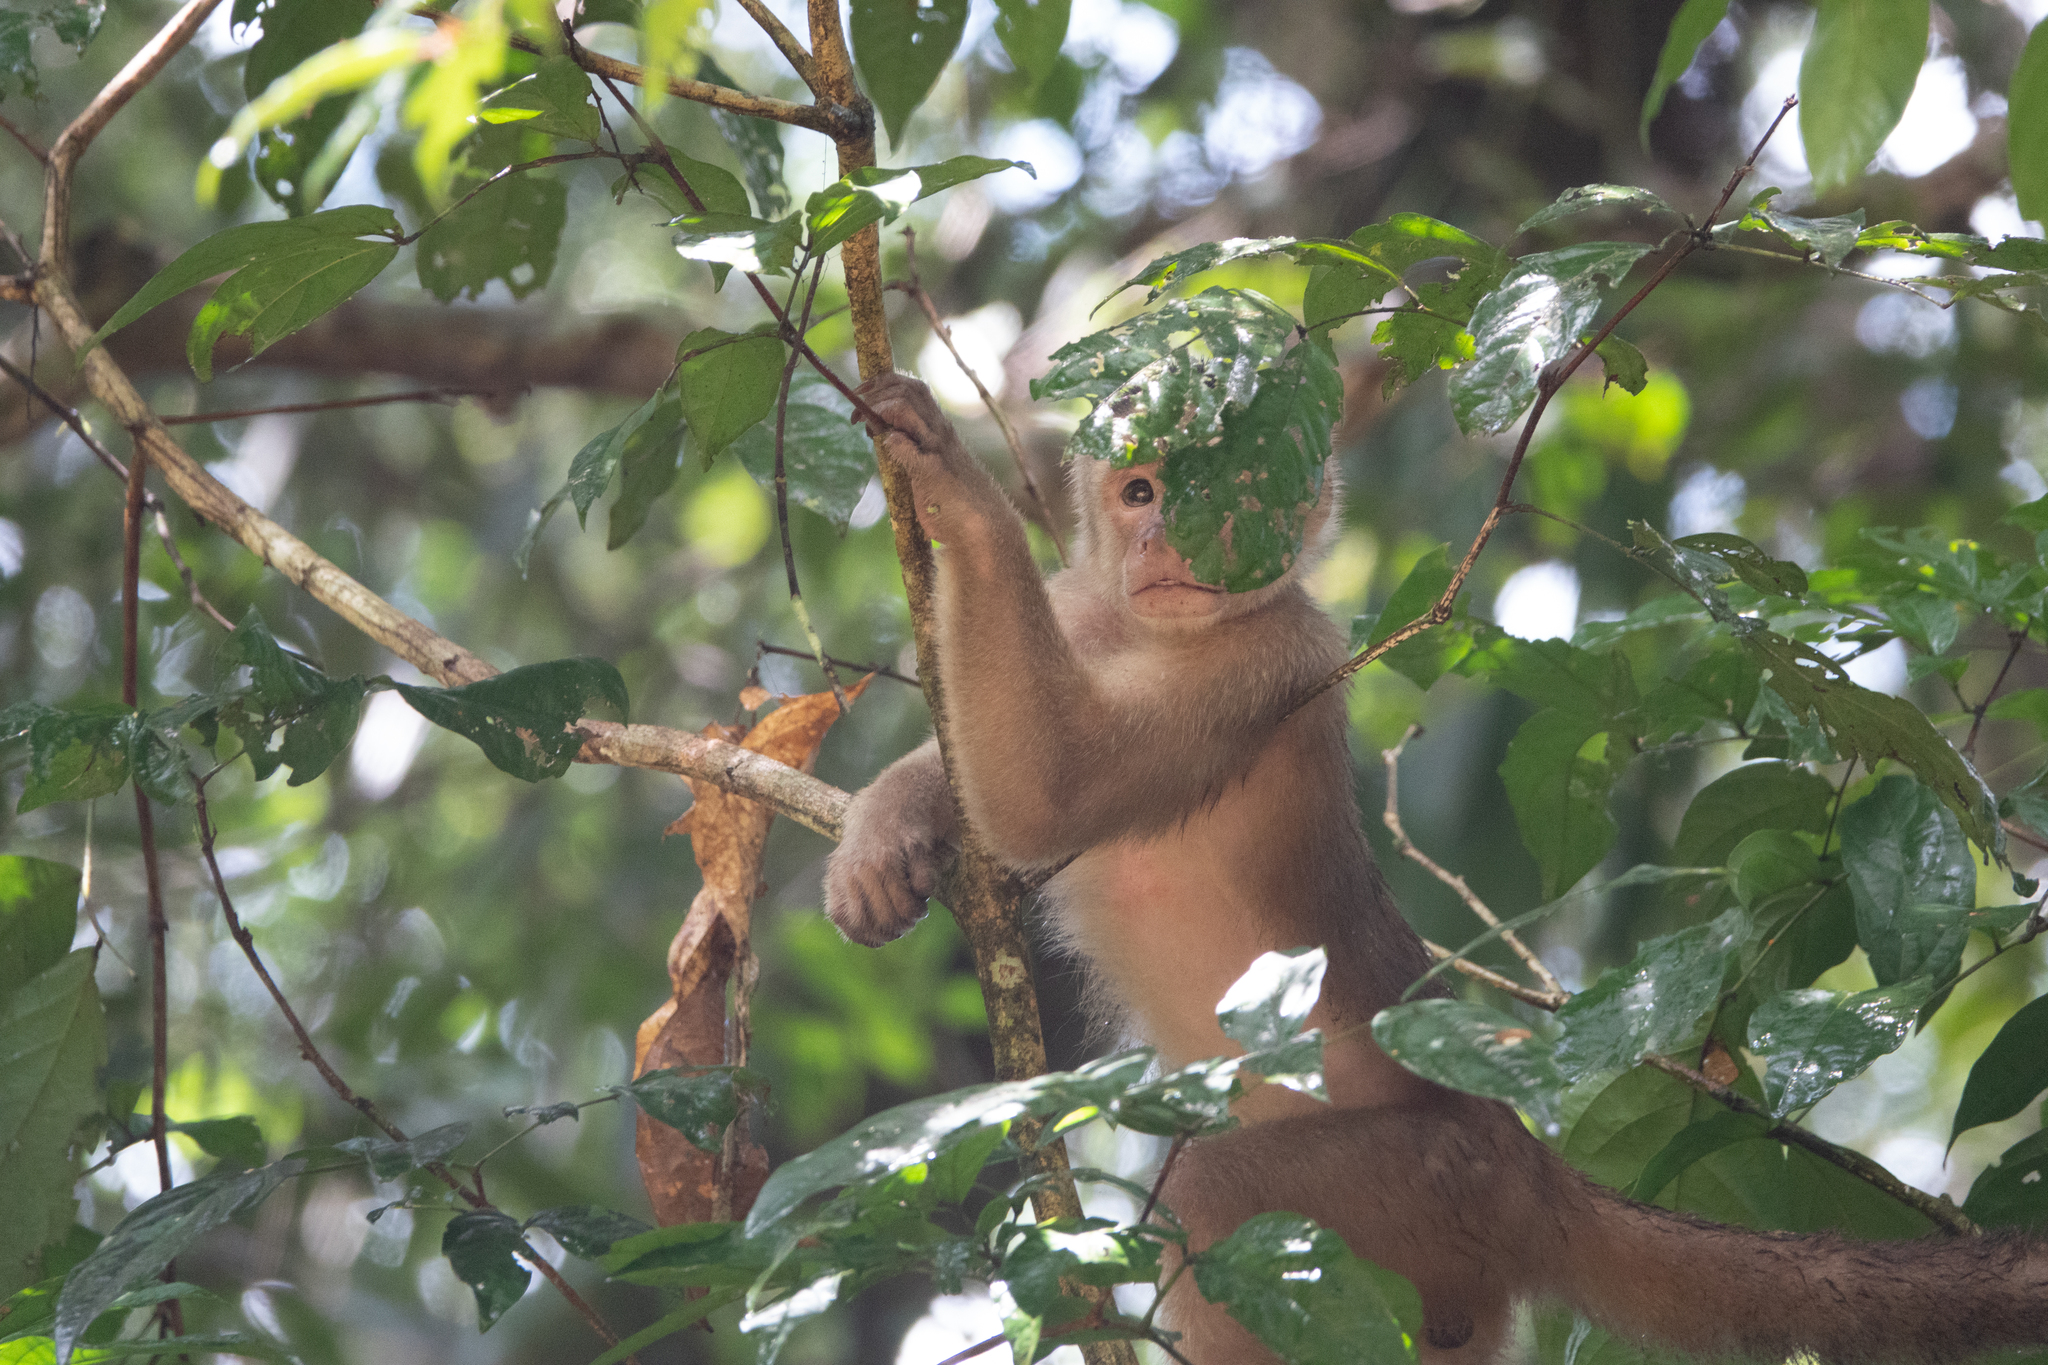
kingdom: Animalia
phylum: Chordata
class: Mammalia
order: Primates
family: Cebidae
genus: Cebus
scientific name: Cebus yuracus
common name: Peruvian white-fronted capuchin
